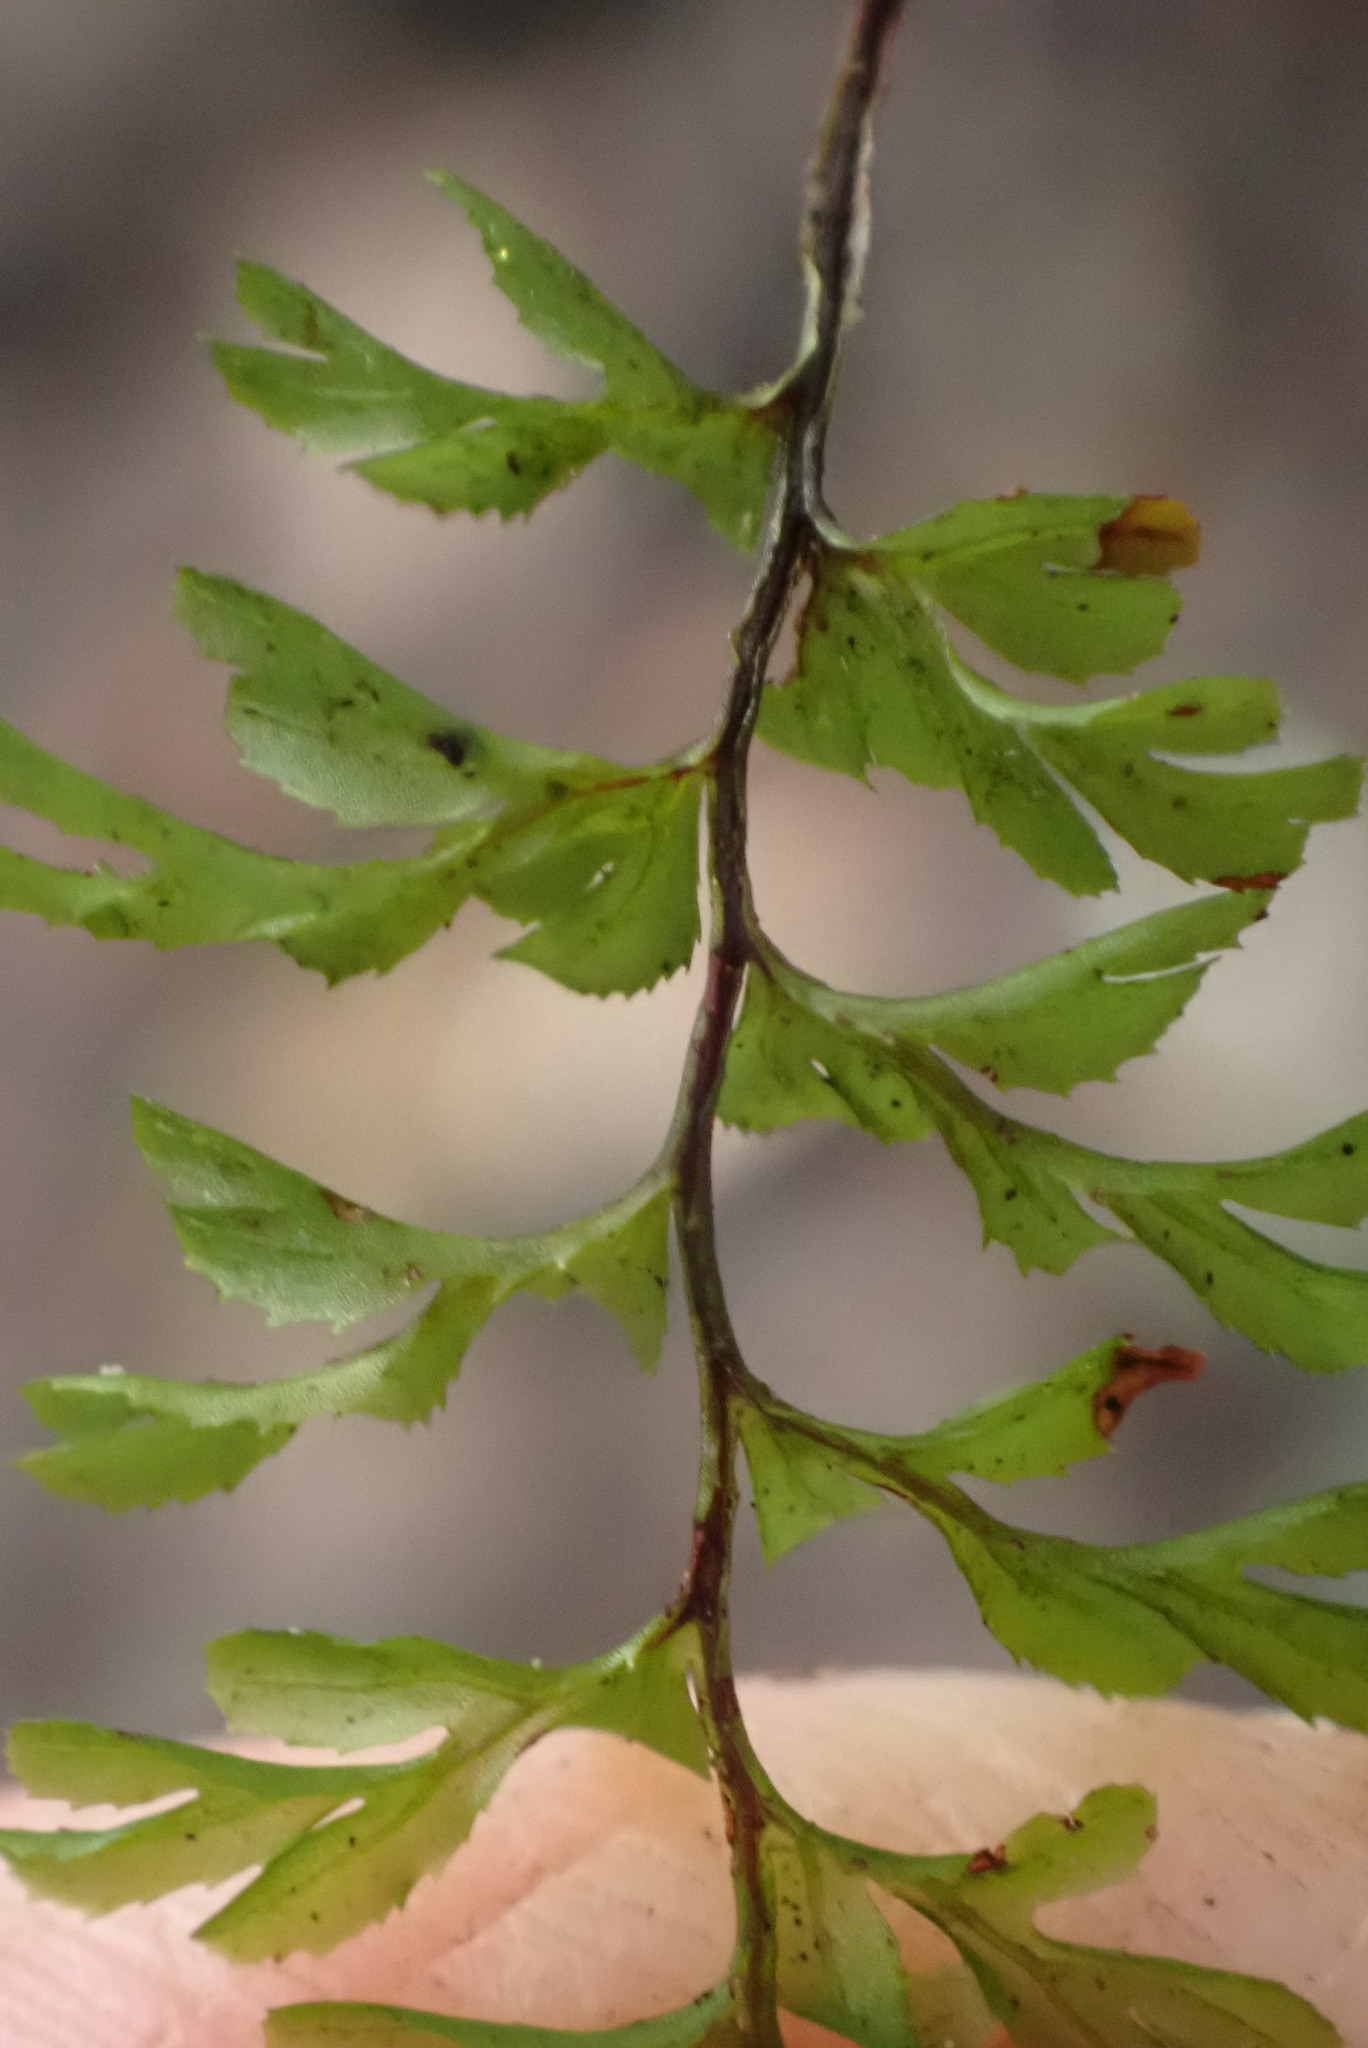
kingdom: Plantae
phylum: Tracheophyta
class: Polypodiopsida
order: Hymenophyllales
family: Hymenophyllaceae
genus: Hymenophyllum
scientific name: Hymenophyllum cupressiforme
